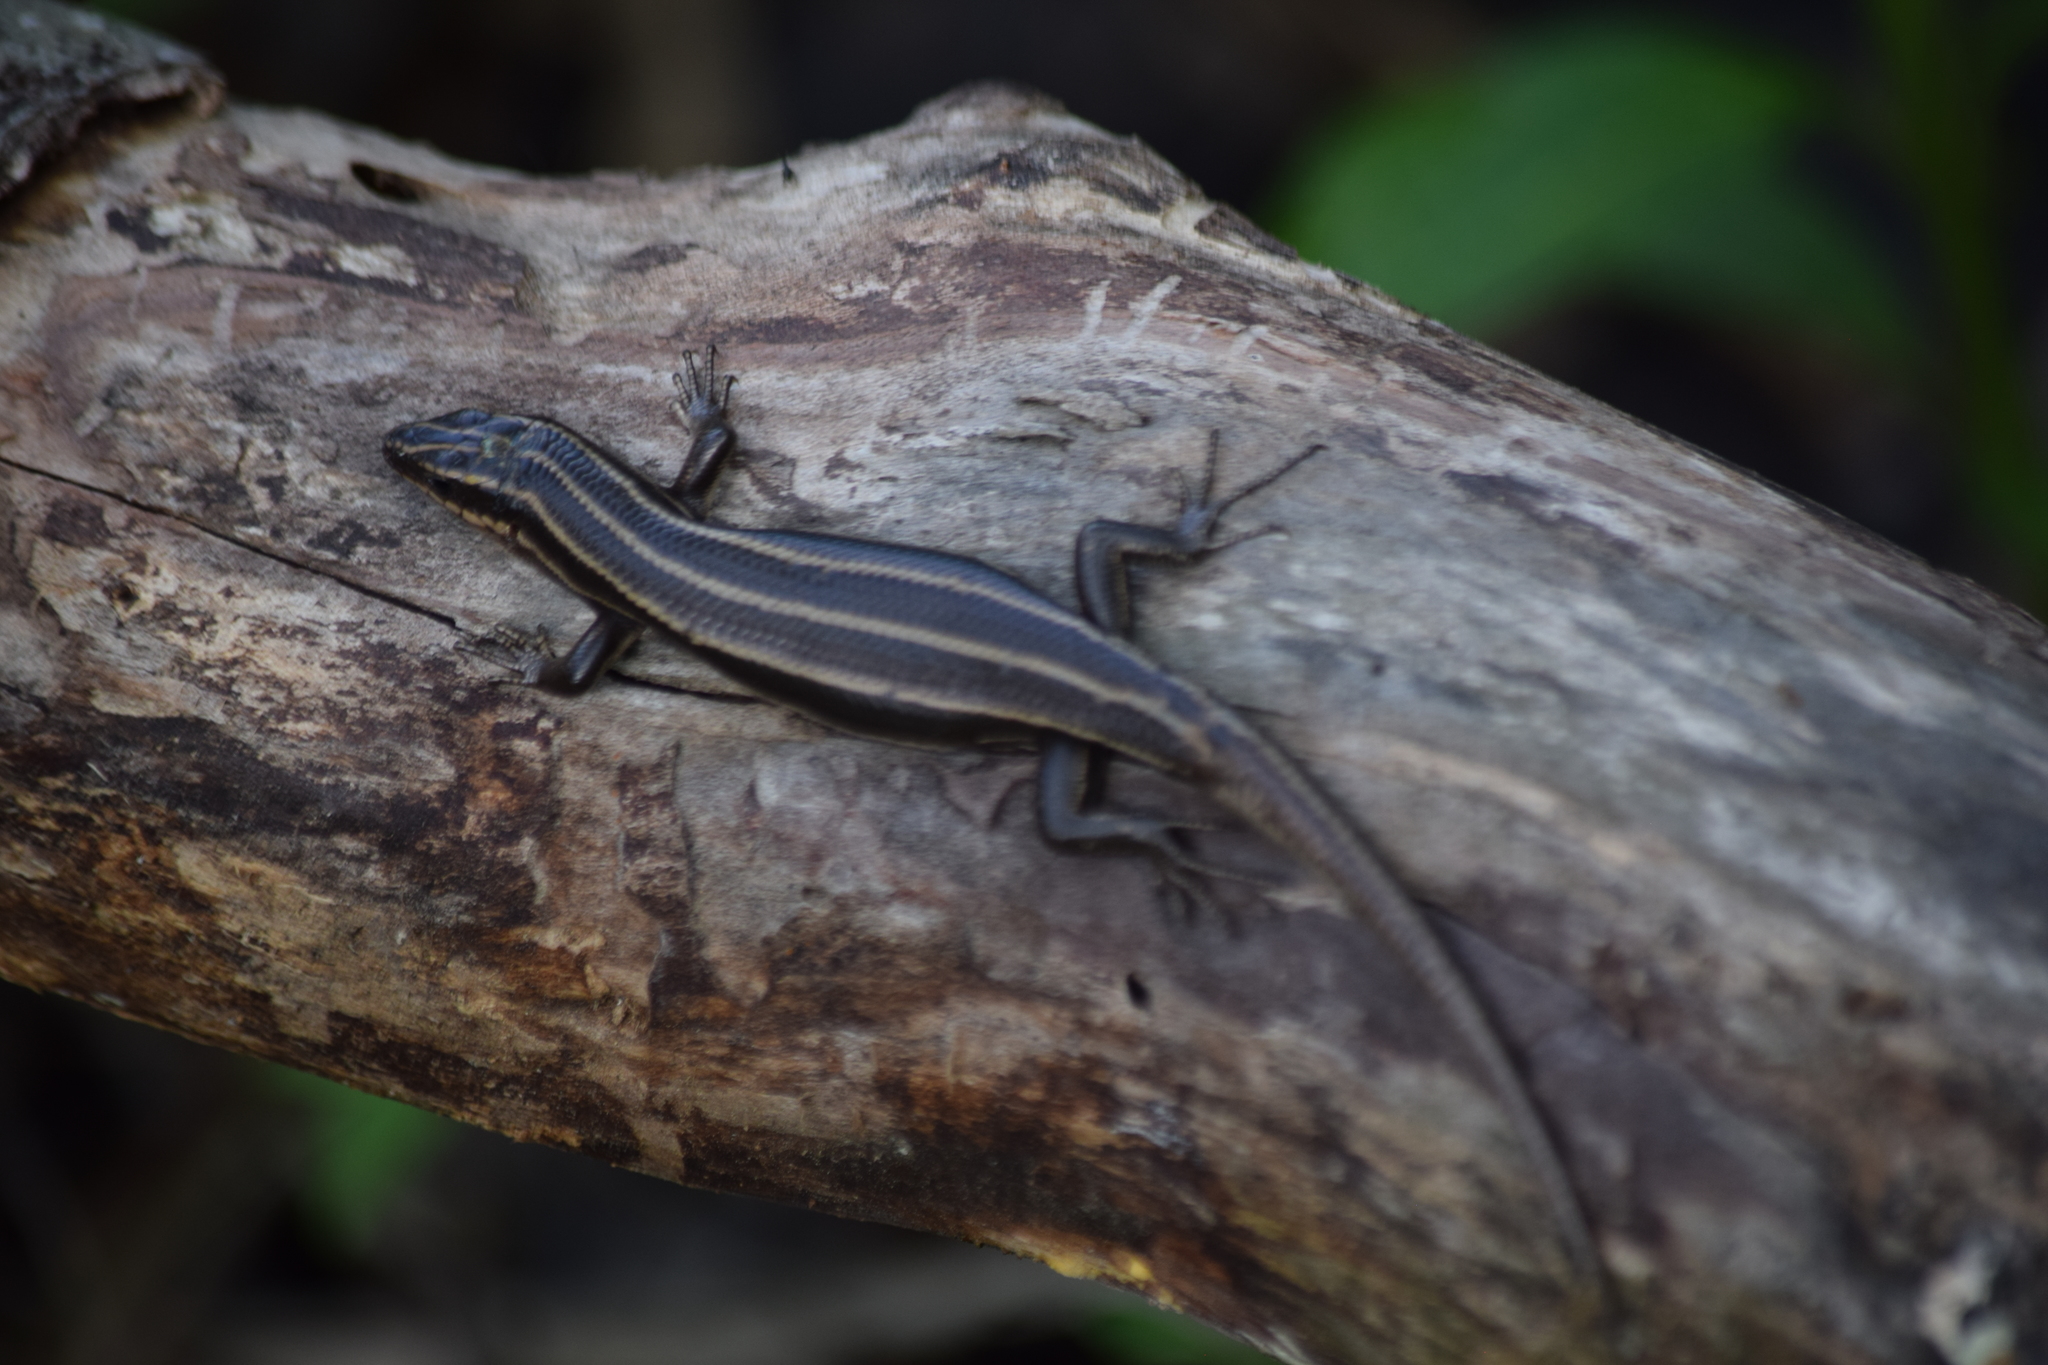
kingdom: Animalia
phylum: Chordata
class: Squamata
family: Scincidae
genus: Plestiodon
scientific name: Plestiodon fasciatus
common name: Five-lined skink
